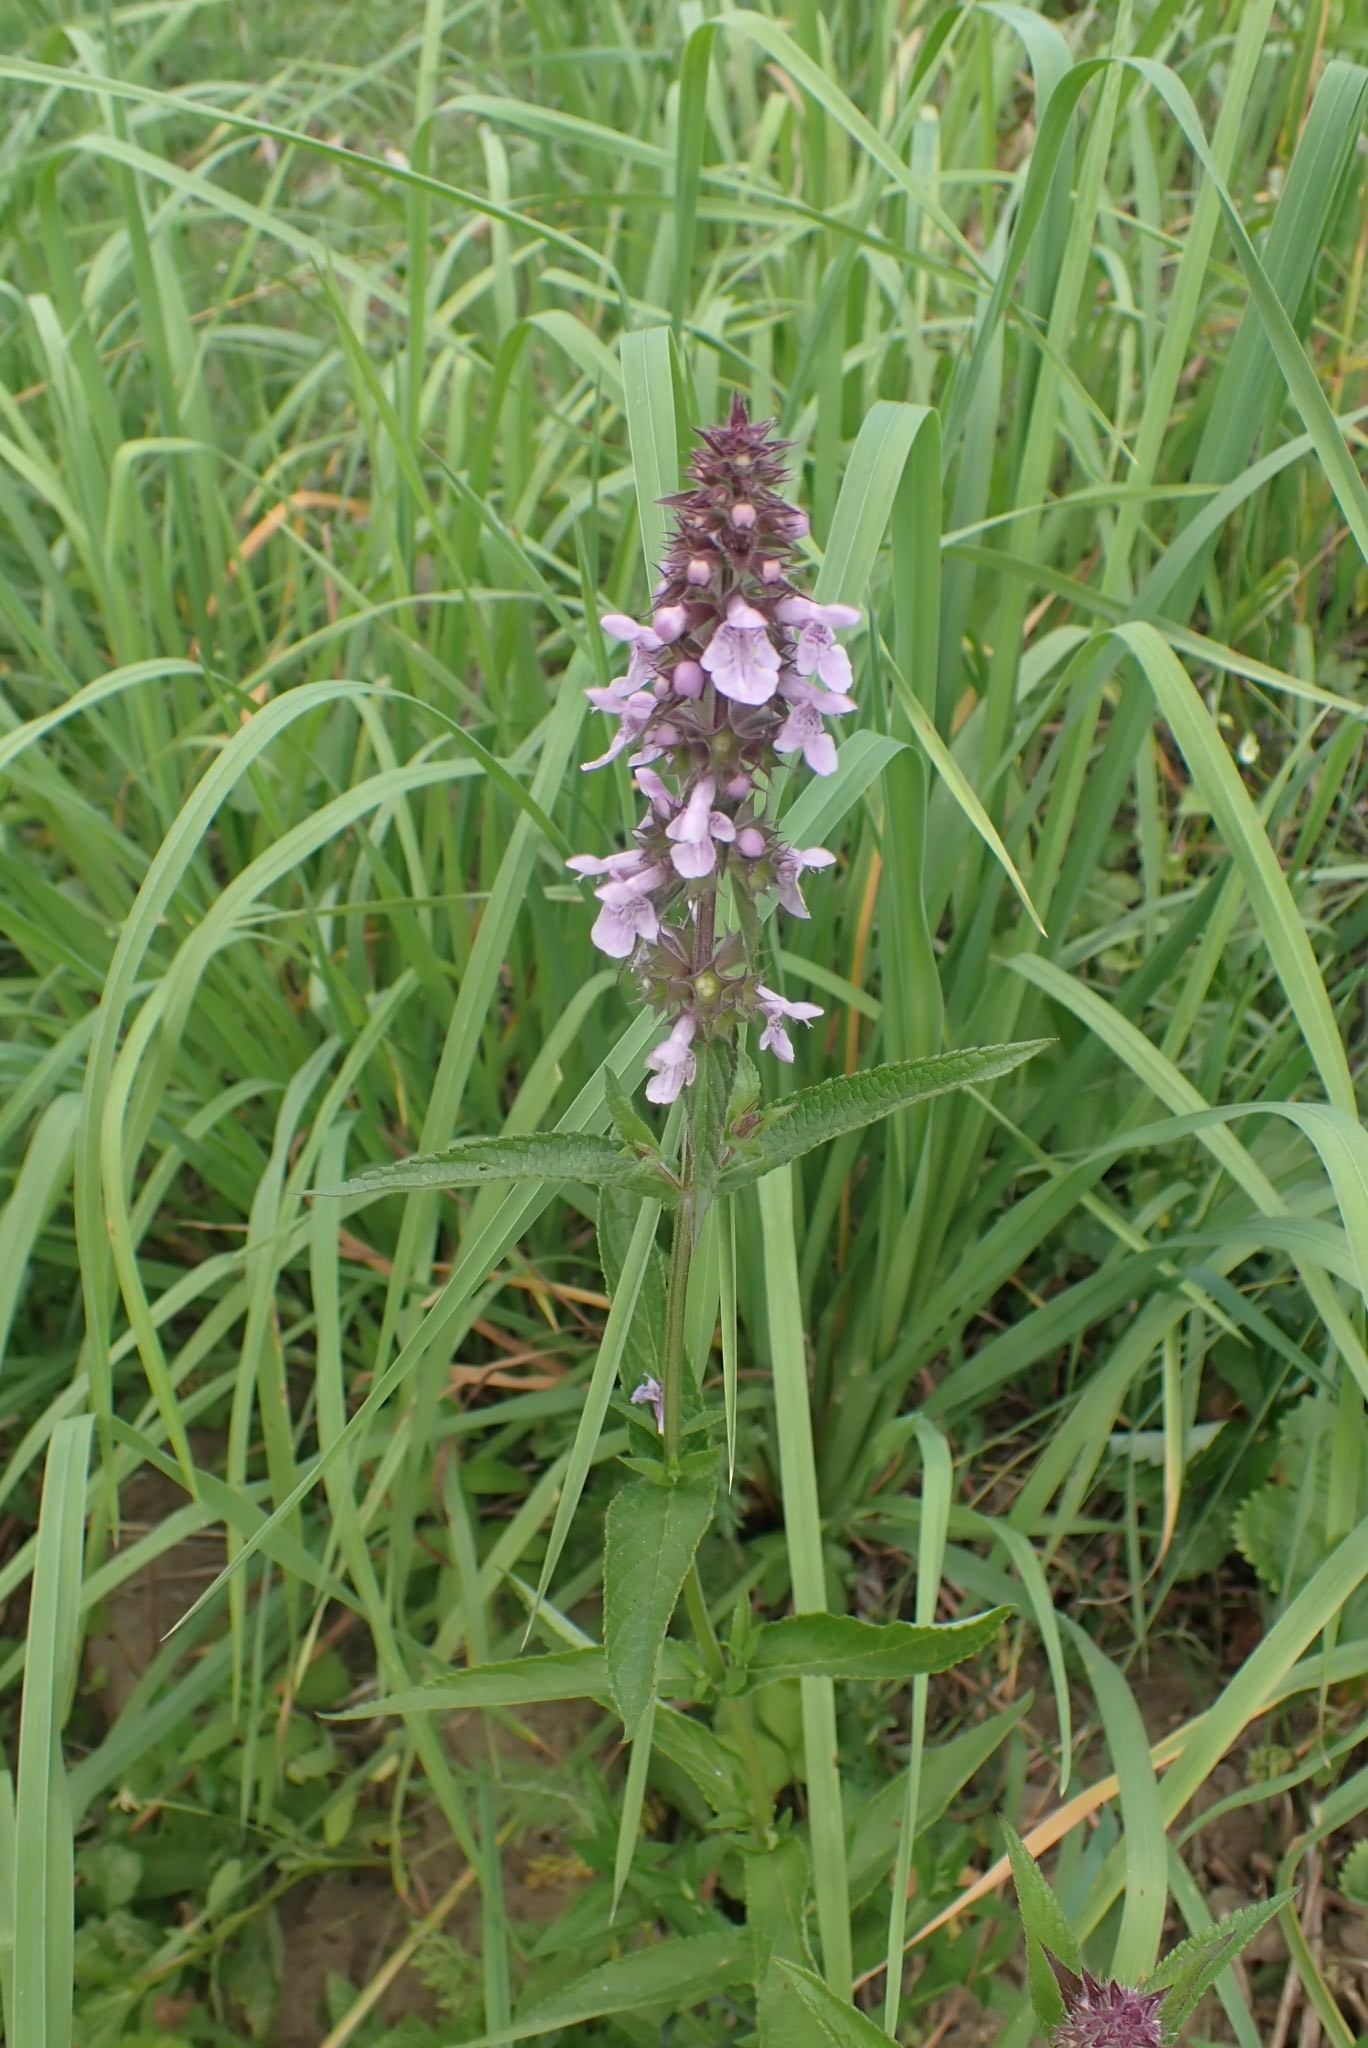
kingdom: Plantae
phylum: Tracheophyta
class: Magnoliopsida
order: Lamiales
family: Lamiaceae
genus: Stachys
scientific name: Stachys palustris
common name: Marsh woundwort
